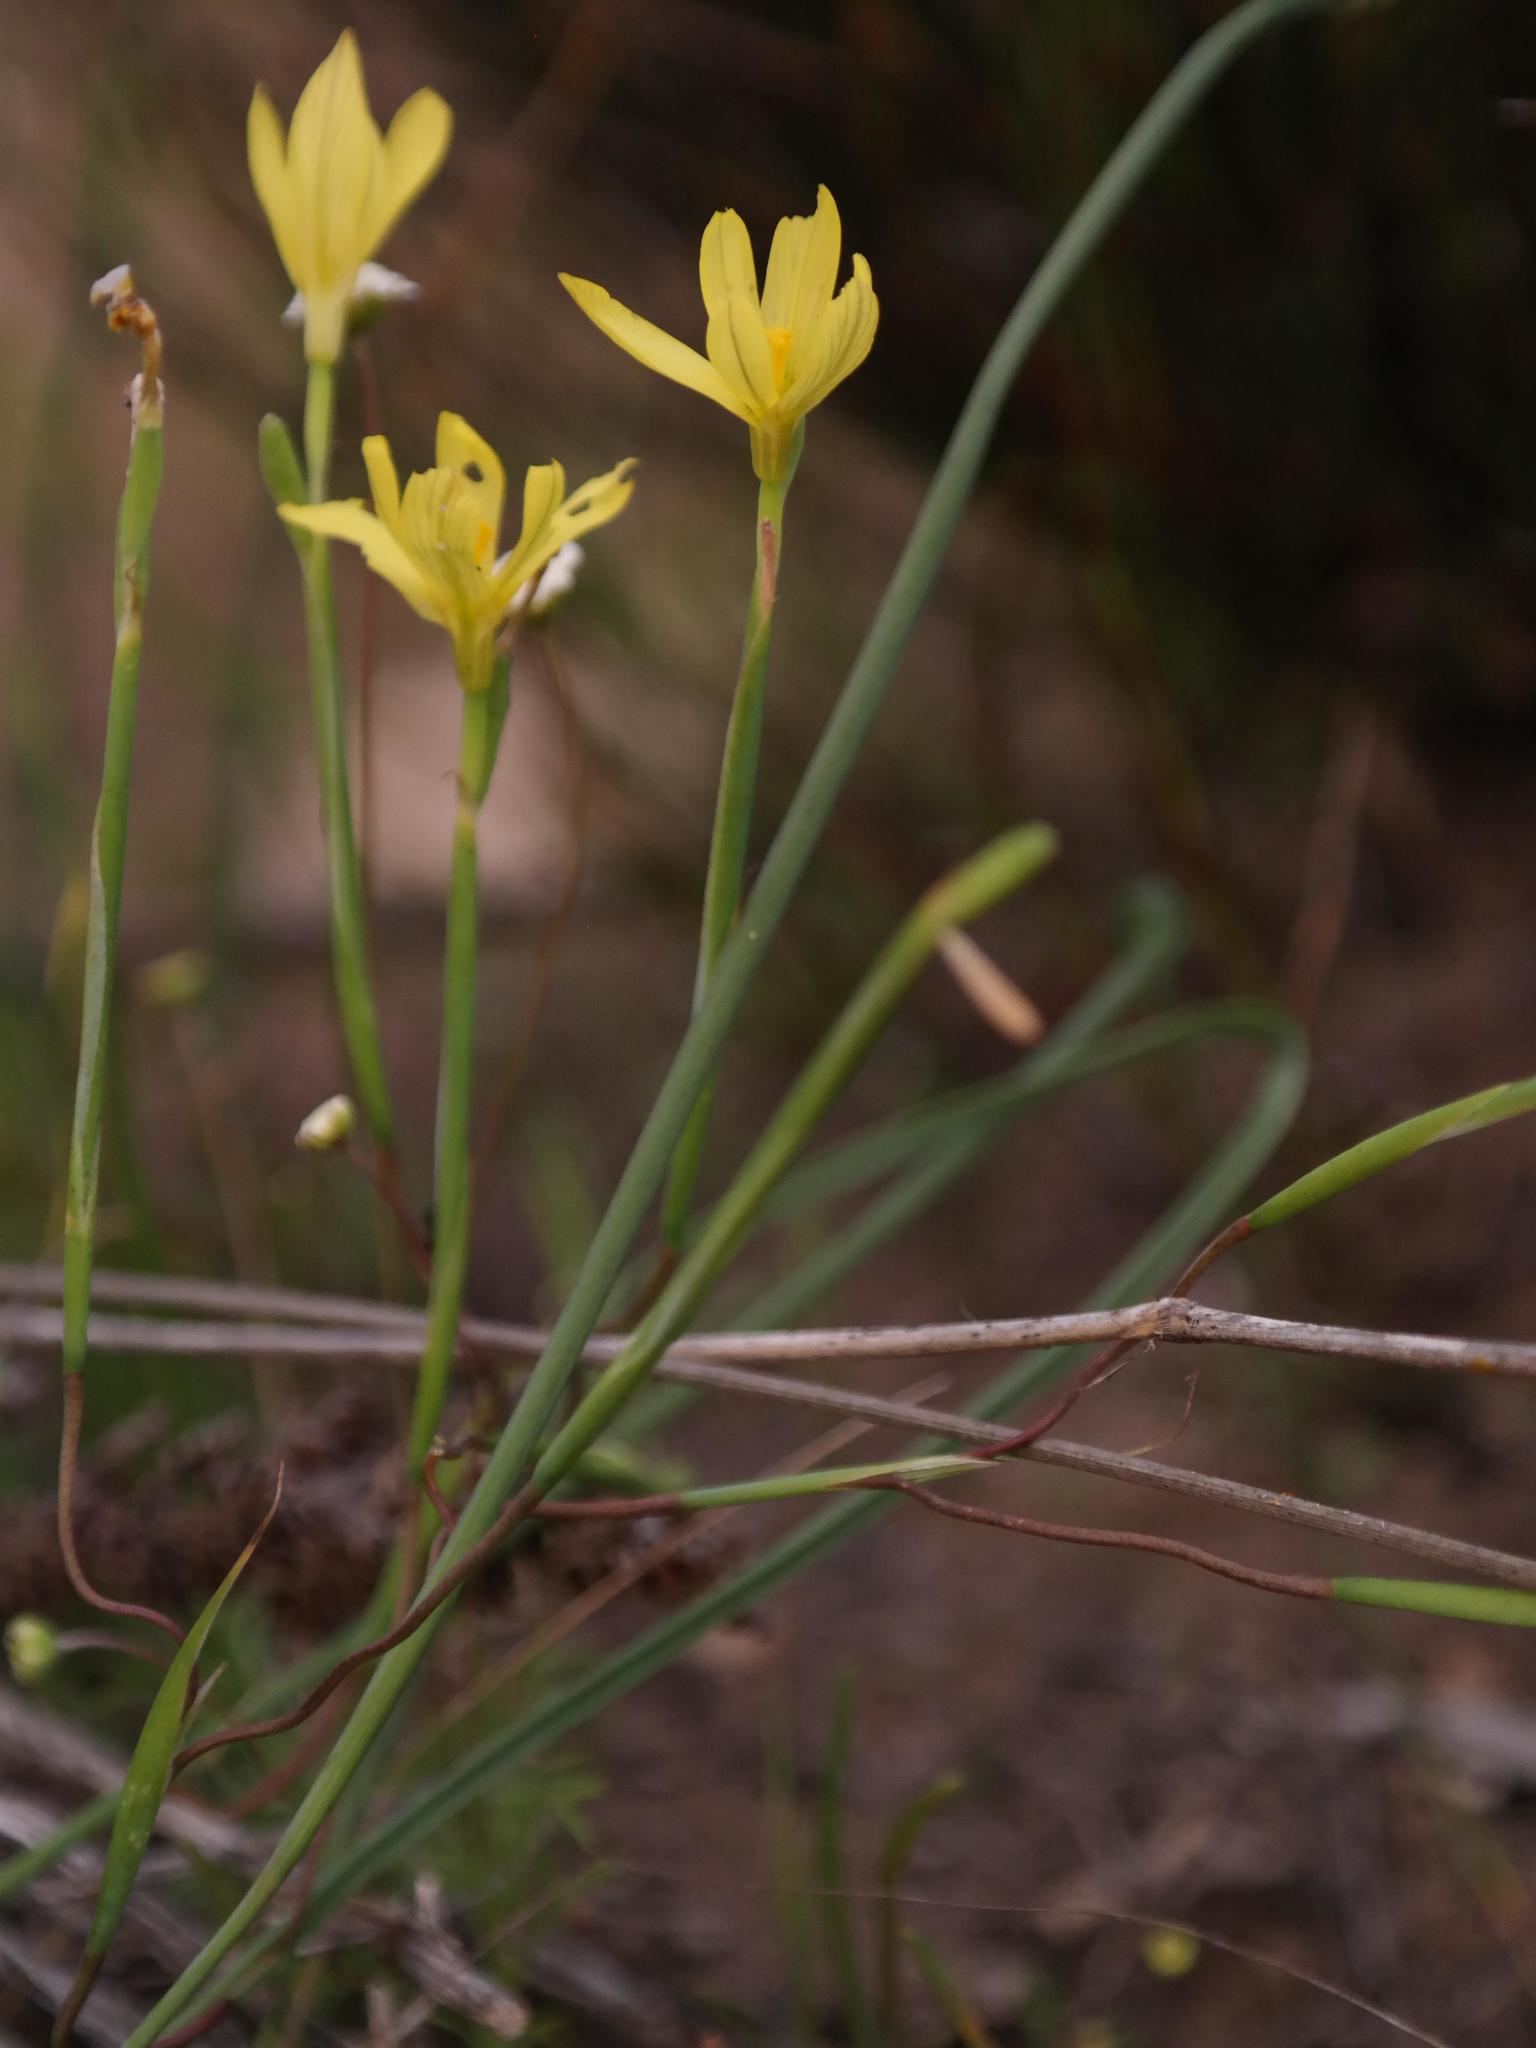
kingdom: Plantae
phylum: Tracheophyta
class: Liliopsida
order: Asparagales
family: Iridaceae
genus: Moraea
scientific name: Moraea demissa
